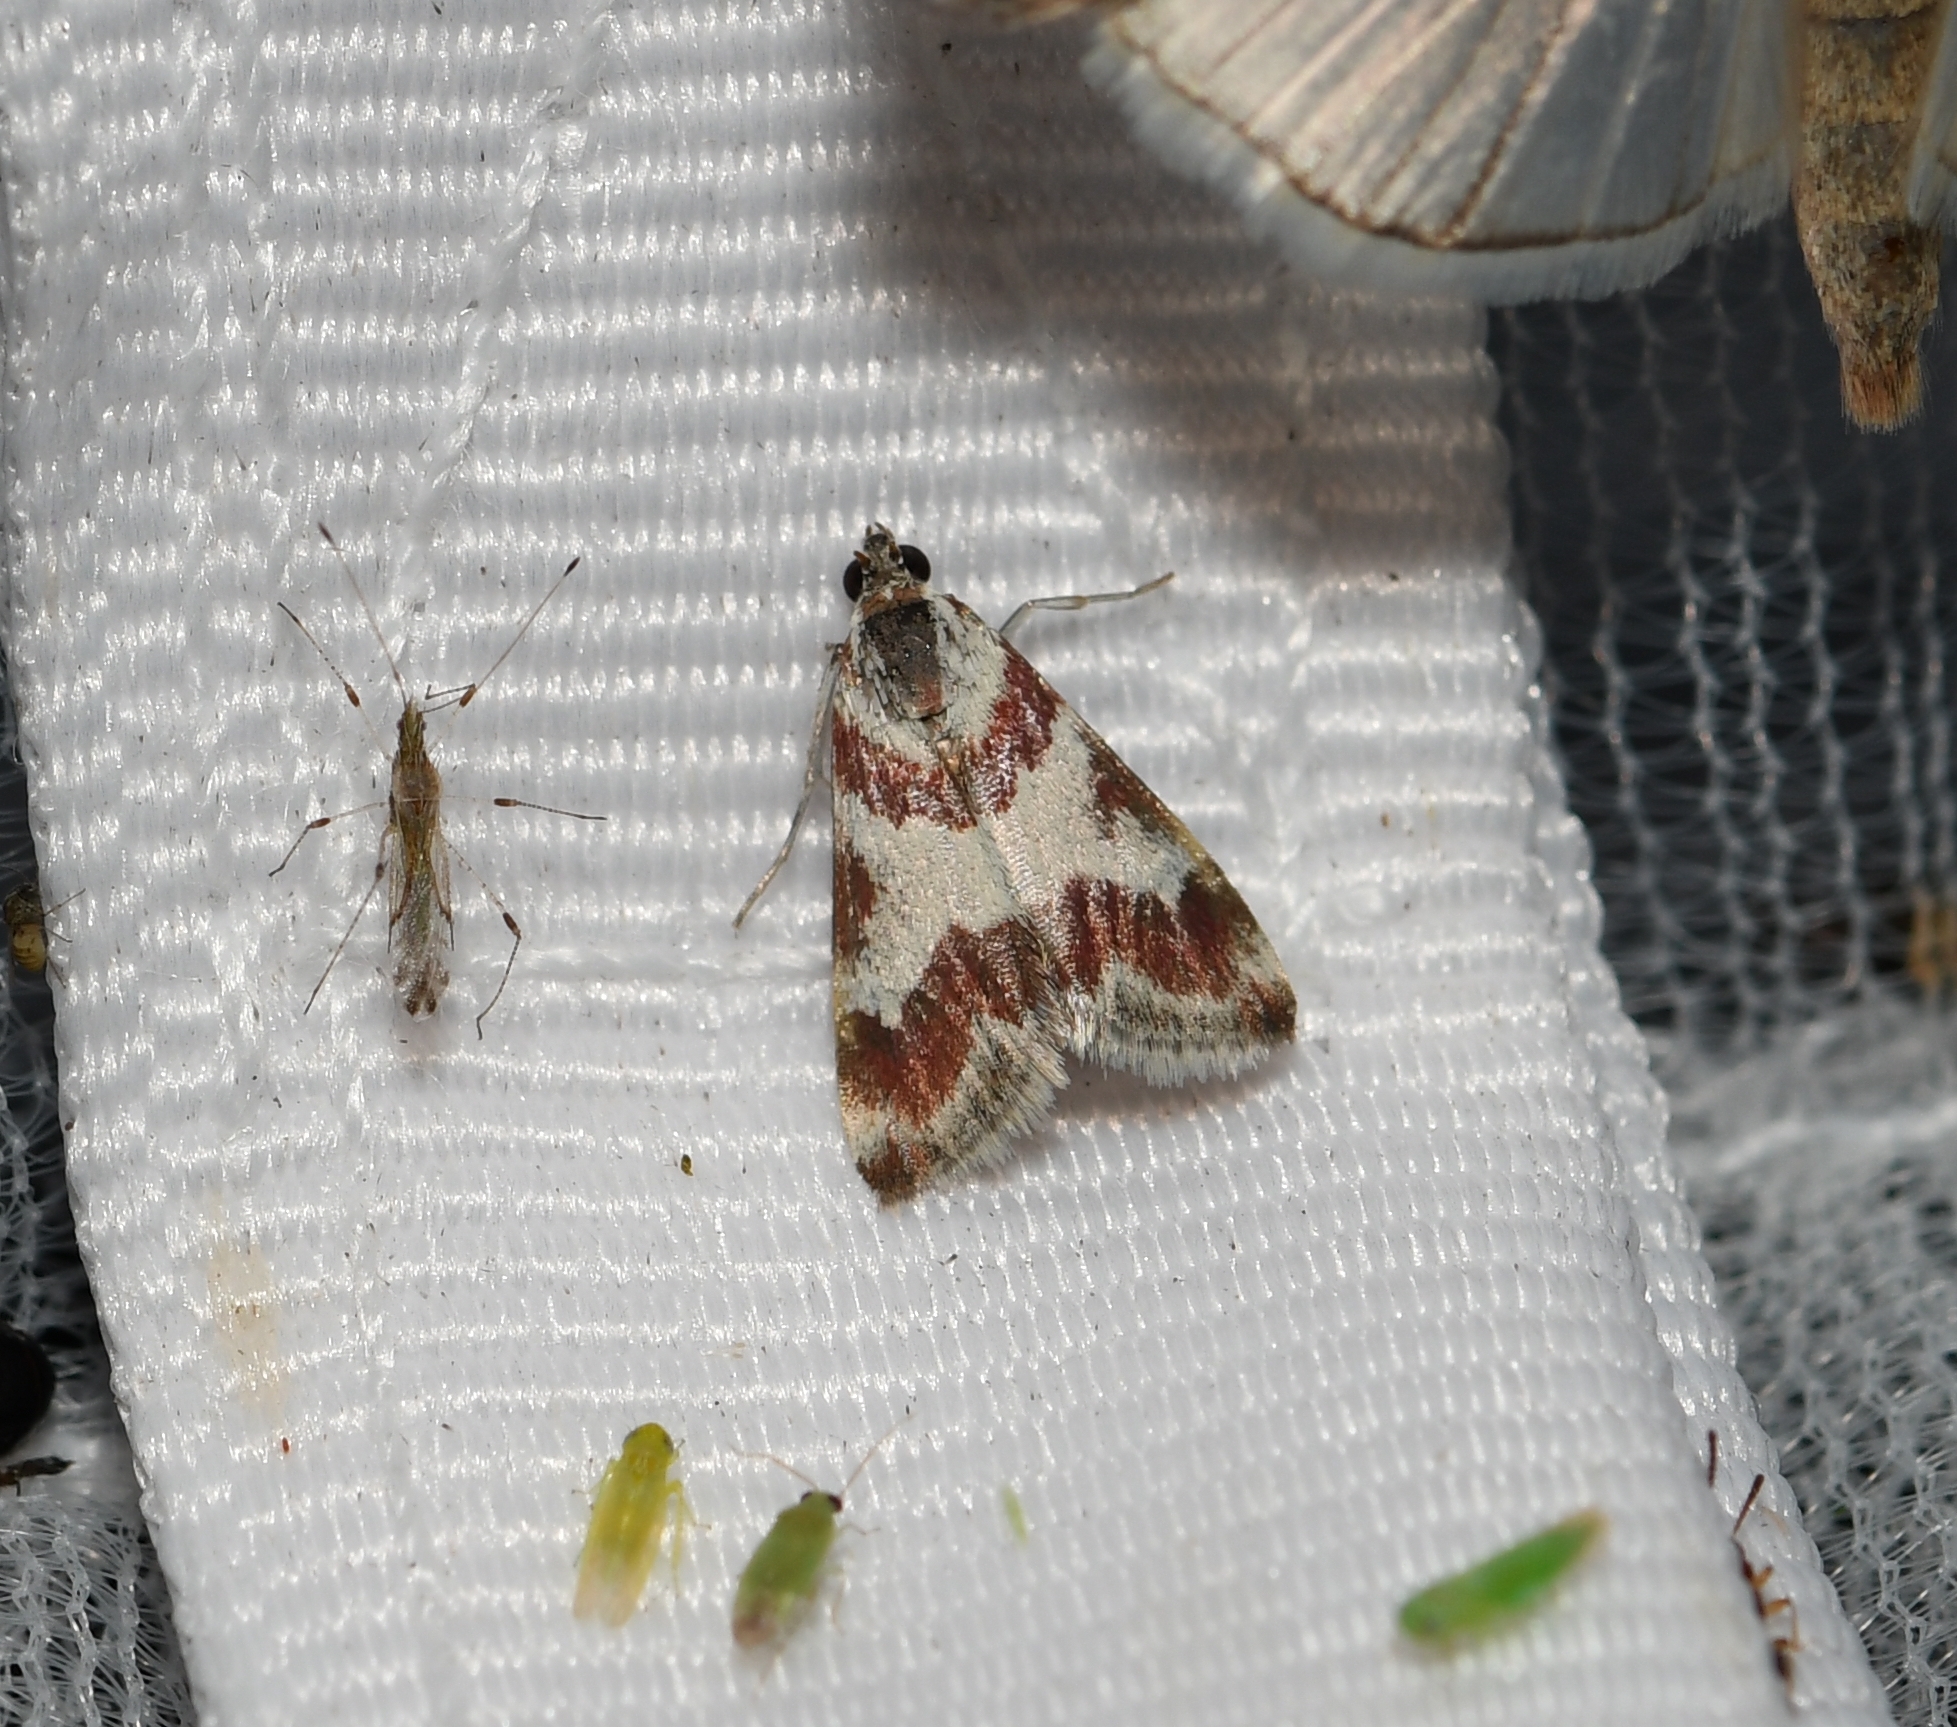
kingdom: Animalia
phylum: Arthropoda
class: Insecta
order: Lepidoptera
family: Crambidae
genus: Noctuelia
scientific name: Noctuelia Mimoschinia rufofascialis
